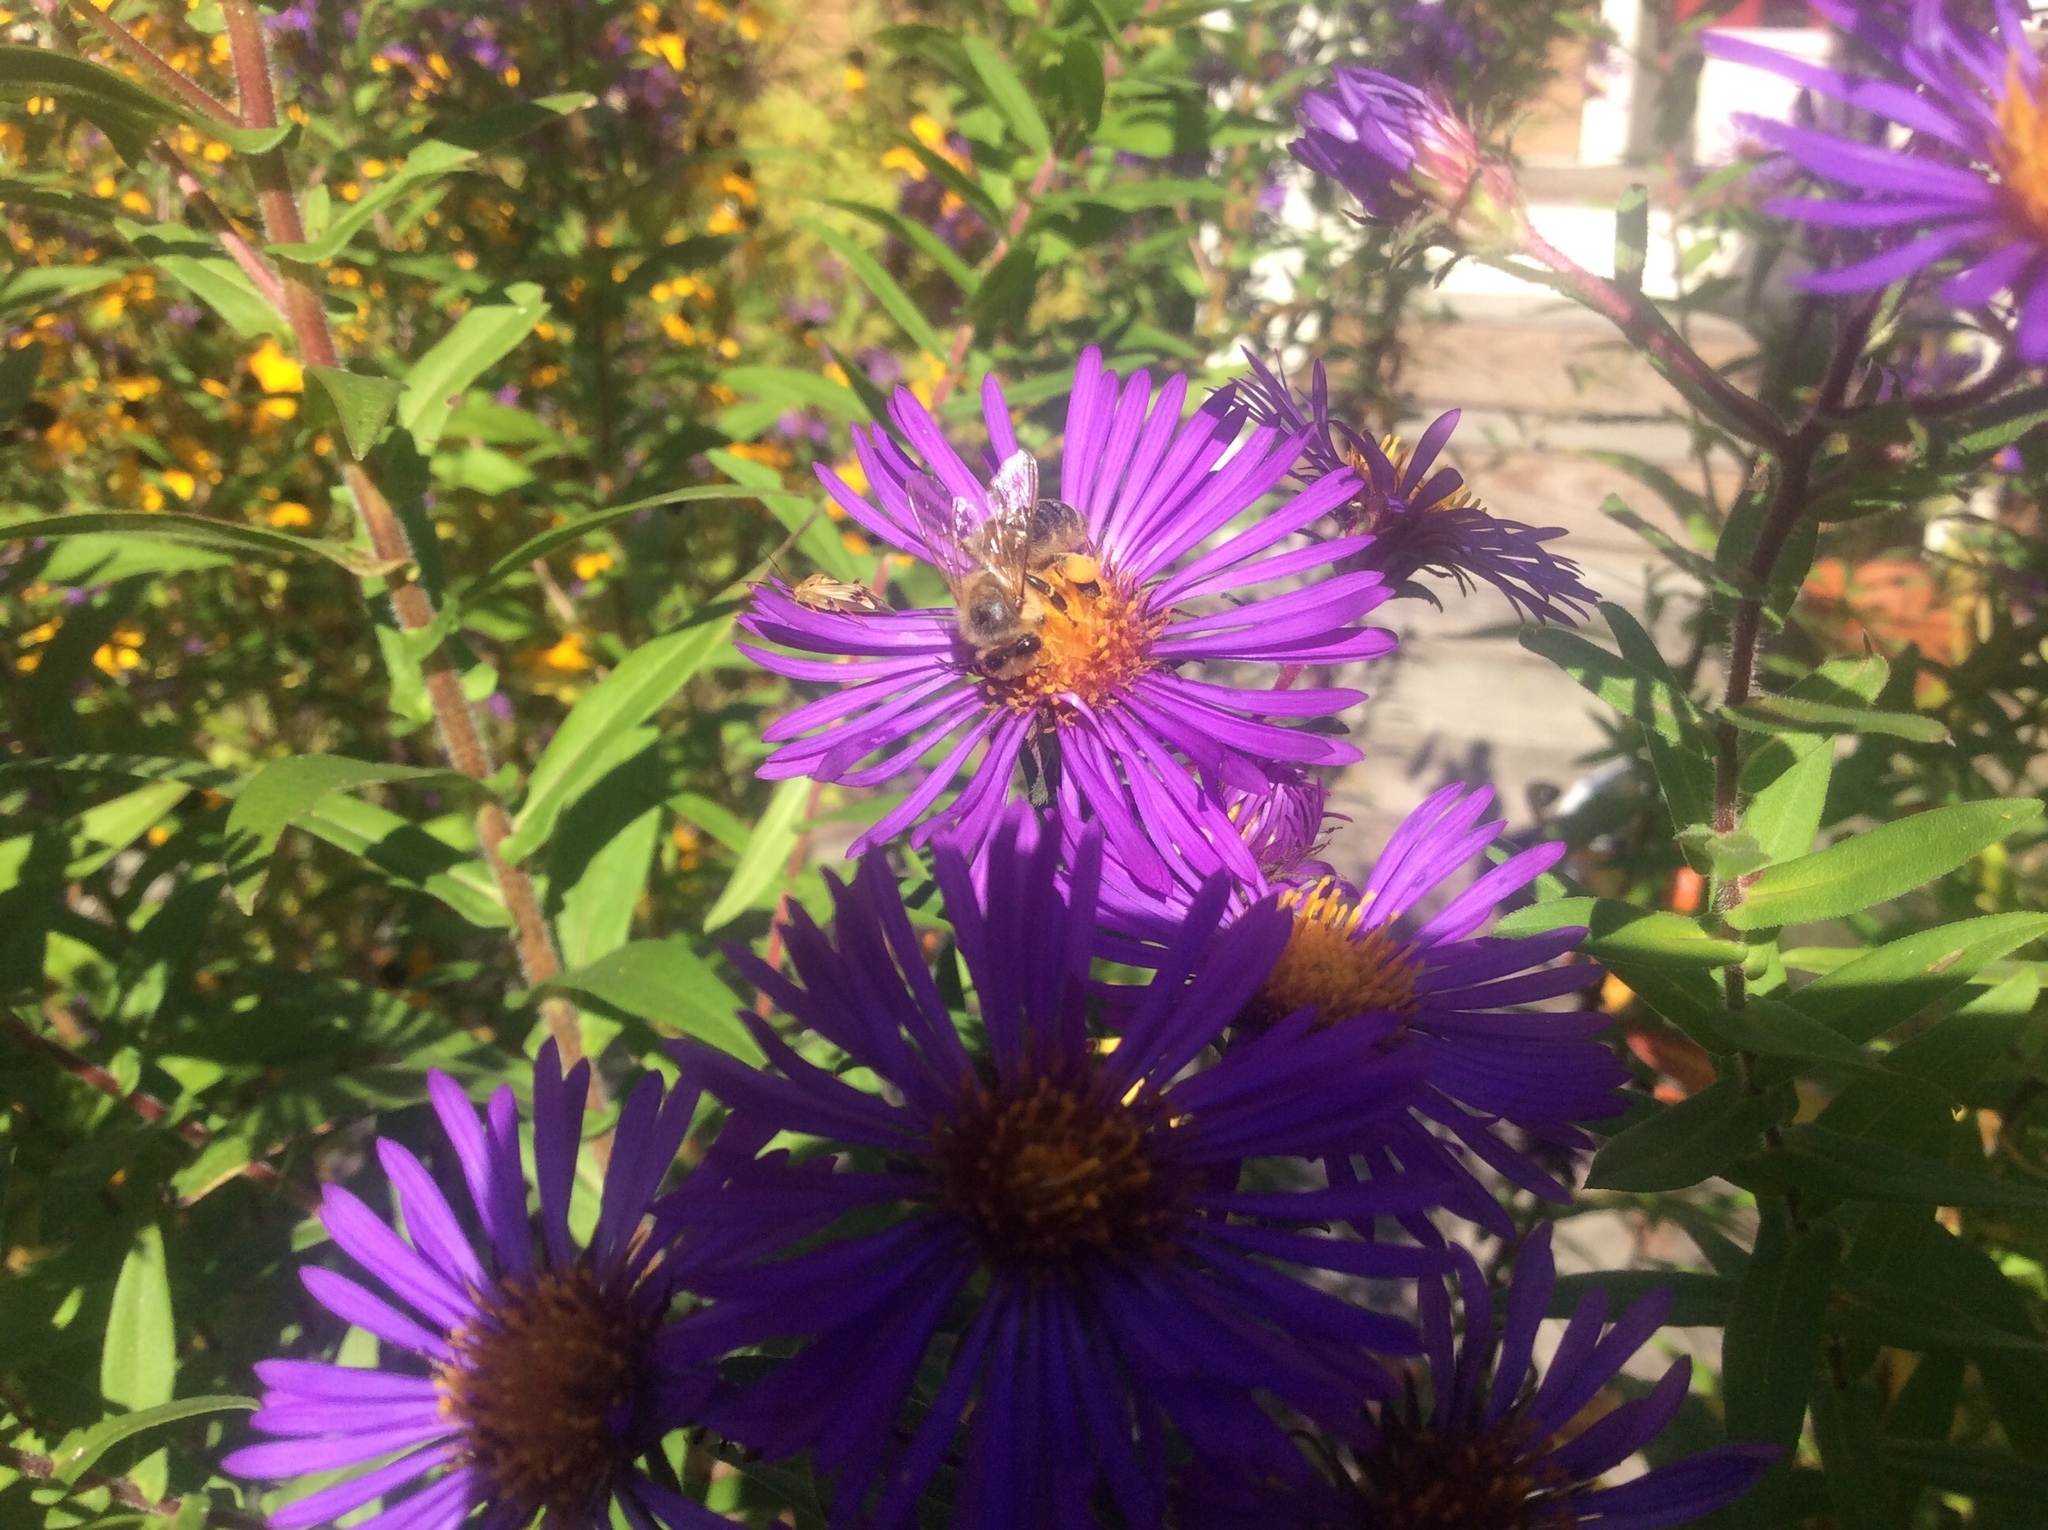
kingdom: Animalia
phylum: Arthropoda
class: Insecta
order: Hymenoptera
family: Apidae
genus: Apis
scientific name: Apis mellifera
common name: Honey bee
